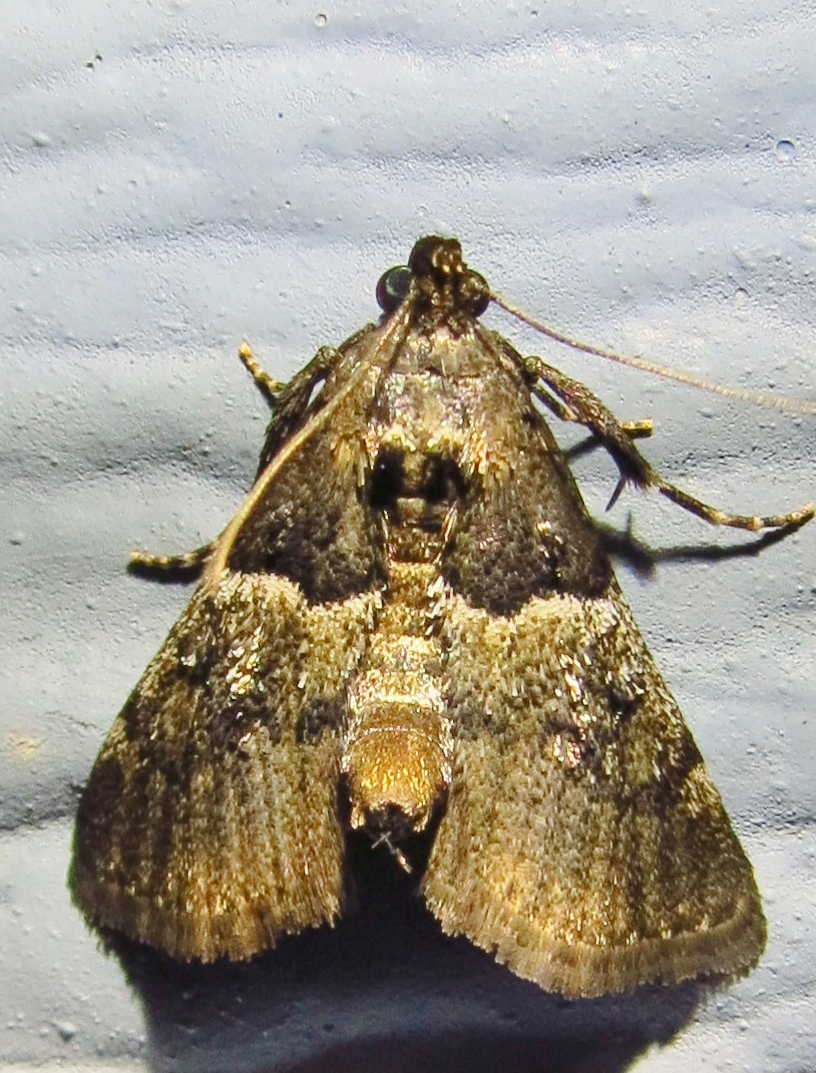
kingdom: Animalia
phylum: Arthropoda
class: Insecta
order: Lepidoptera
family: Pyralidae
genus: Macalla
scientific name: Macalla zelleri
